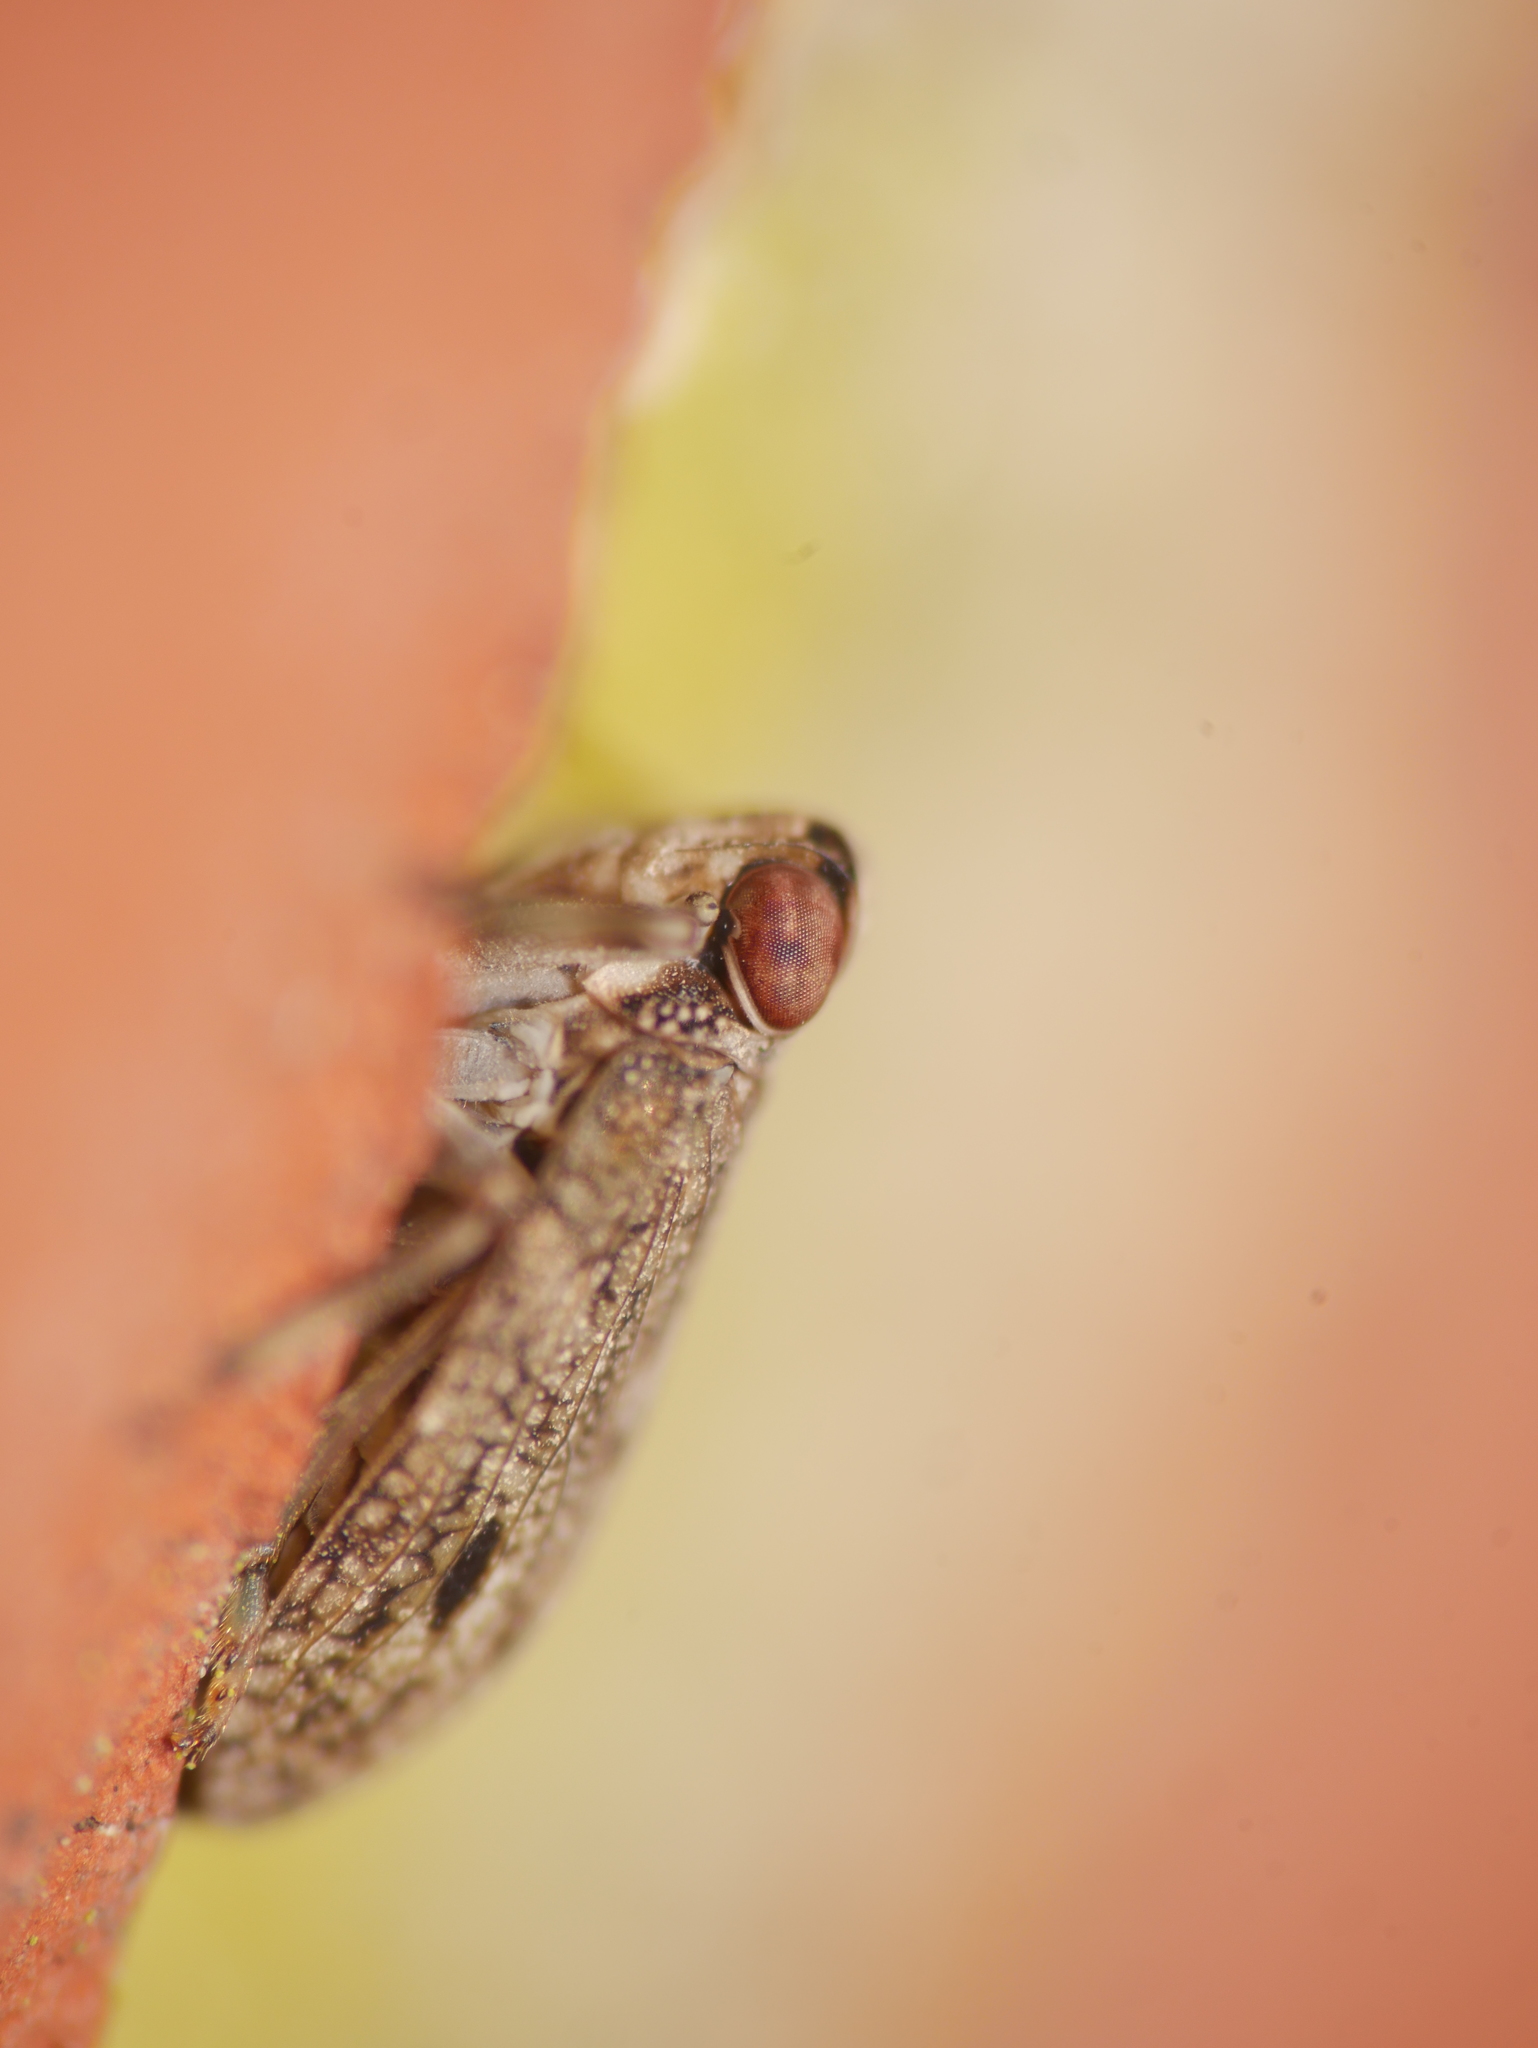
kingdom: Animalia
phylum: Arthropoda
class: Insecta
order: Hemiptera
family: Issidae
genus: Issus
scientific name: Issus coleoptratus
